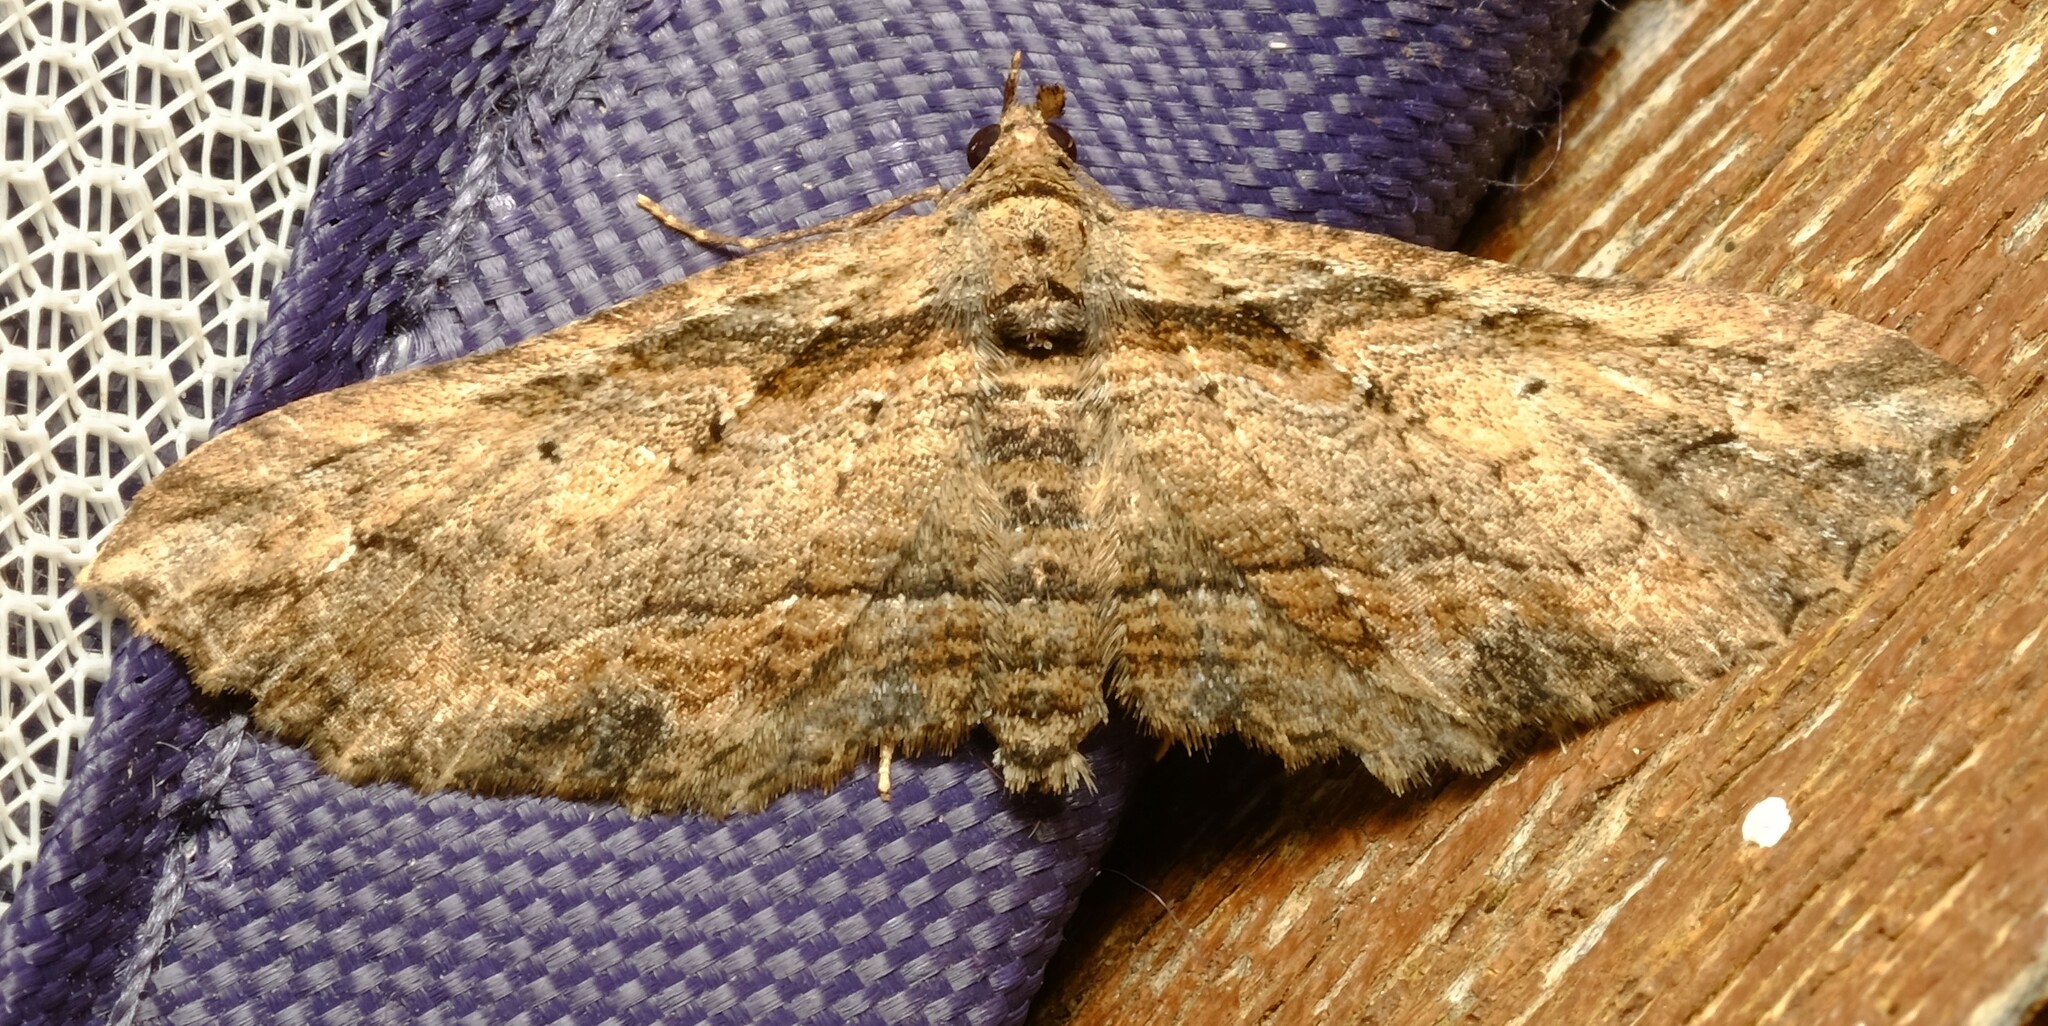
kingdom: Animalia
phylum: Arthropoda
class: Insecta
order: Lepidoptera
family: Geometridae
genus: Chrysolarentia
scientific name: Chrysolarentia leucophanes
